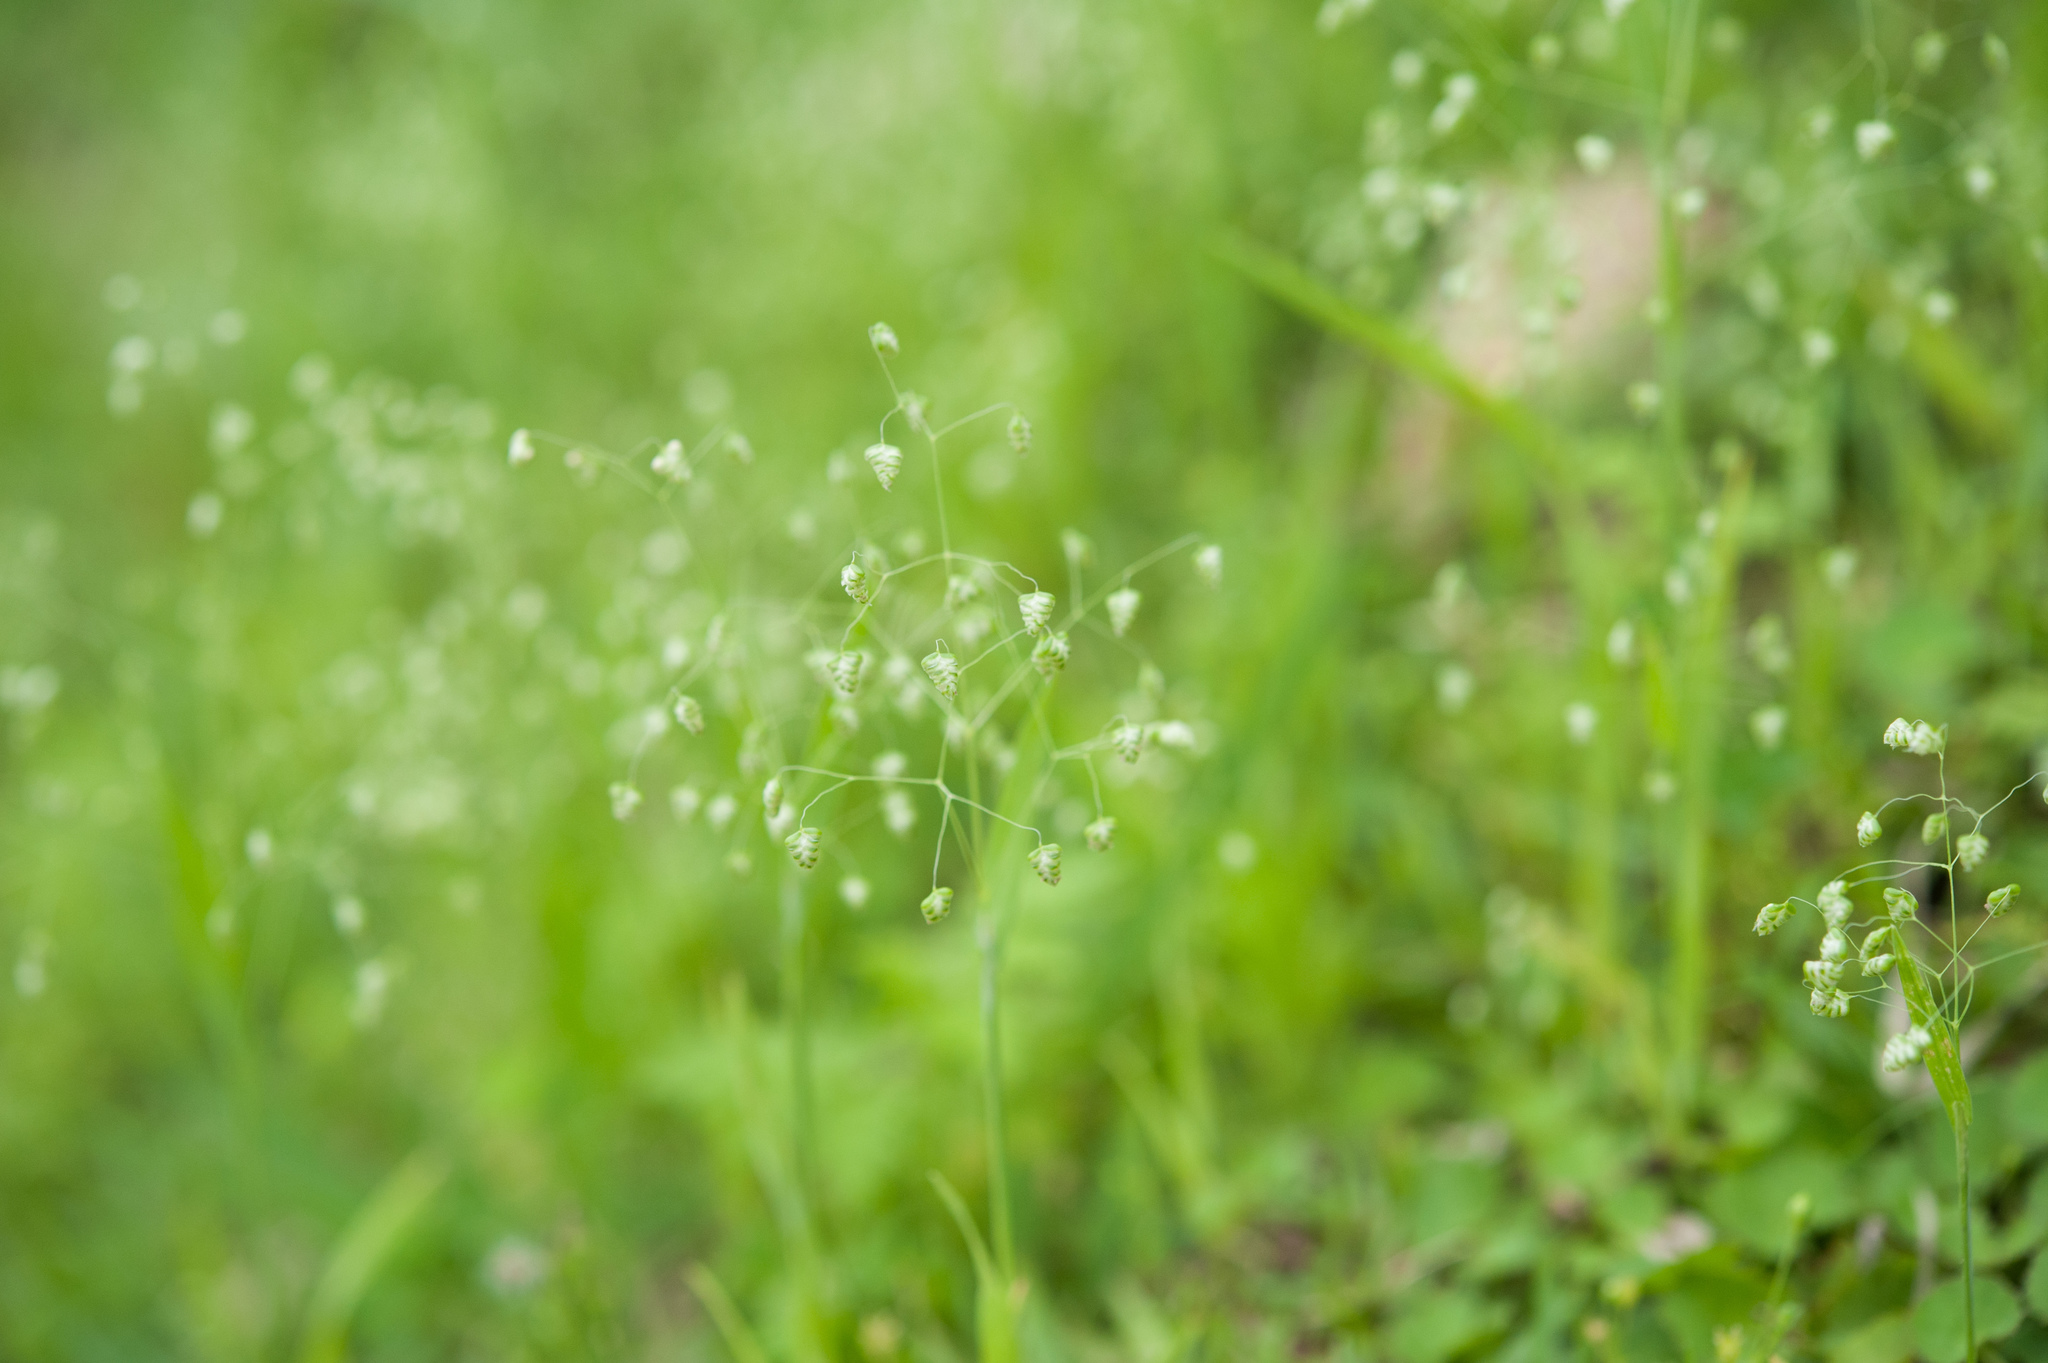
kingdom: Plantae
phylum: Tracheophyta
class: Liliopsida
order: Poales
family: Poaceae
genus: Briza
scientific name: Briza minor
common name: Lesser quaking-grass
